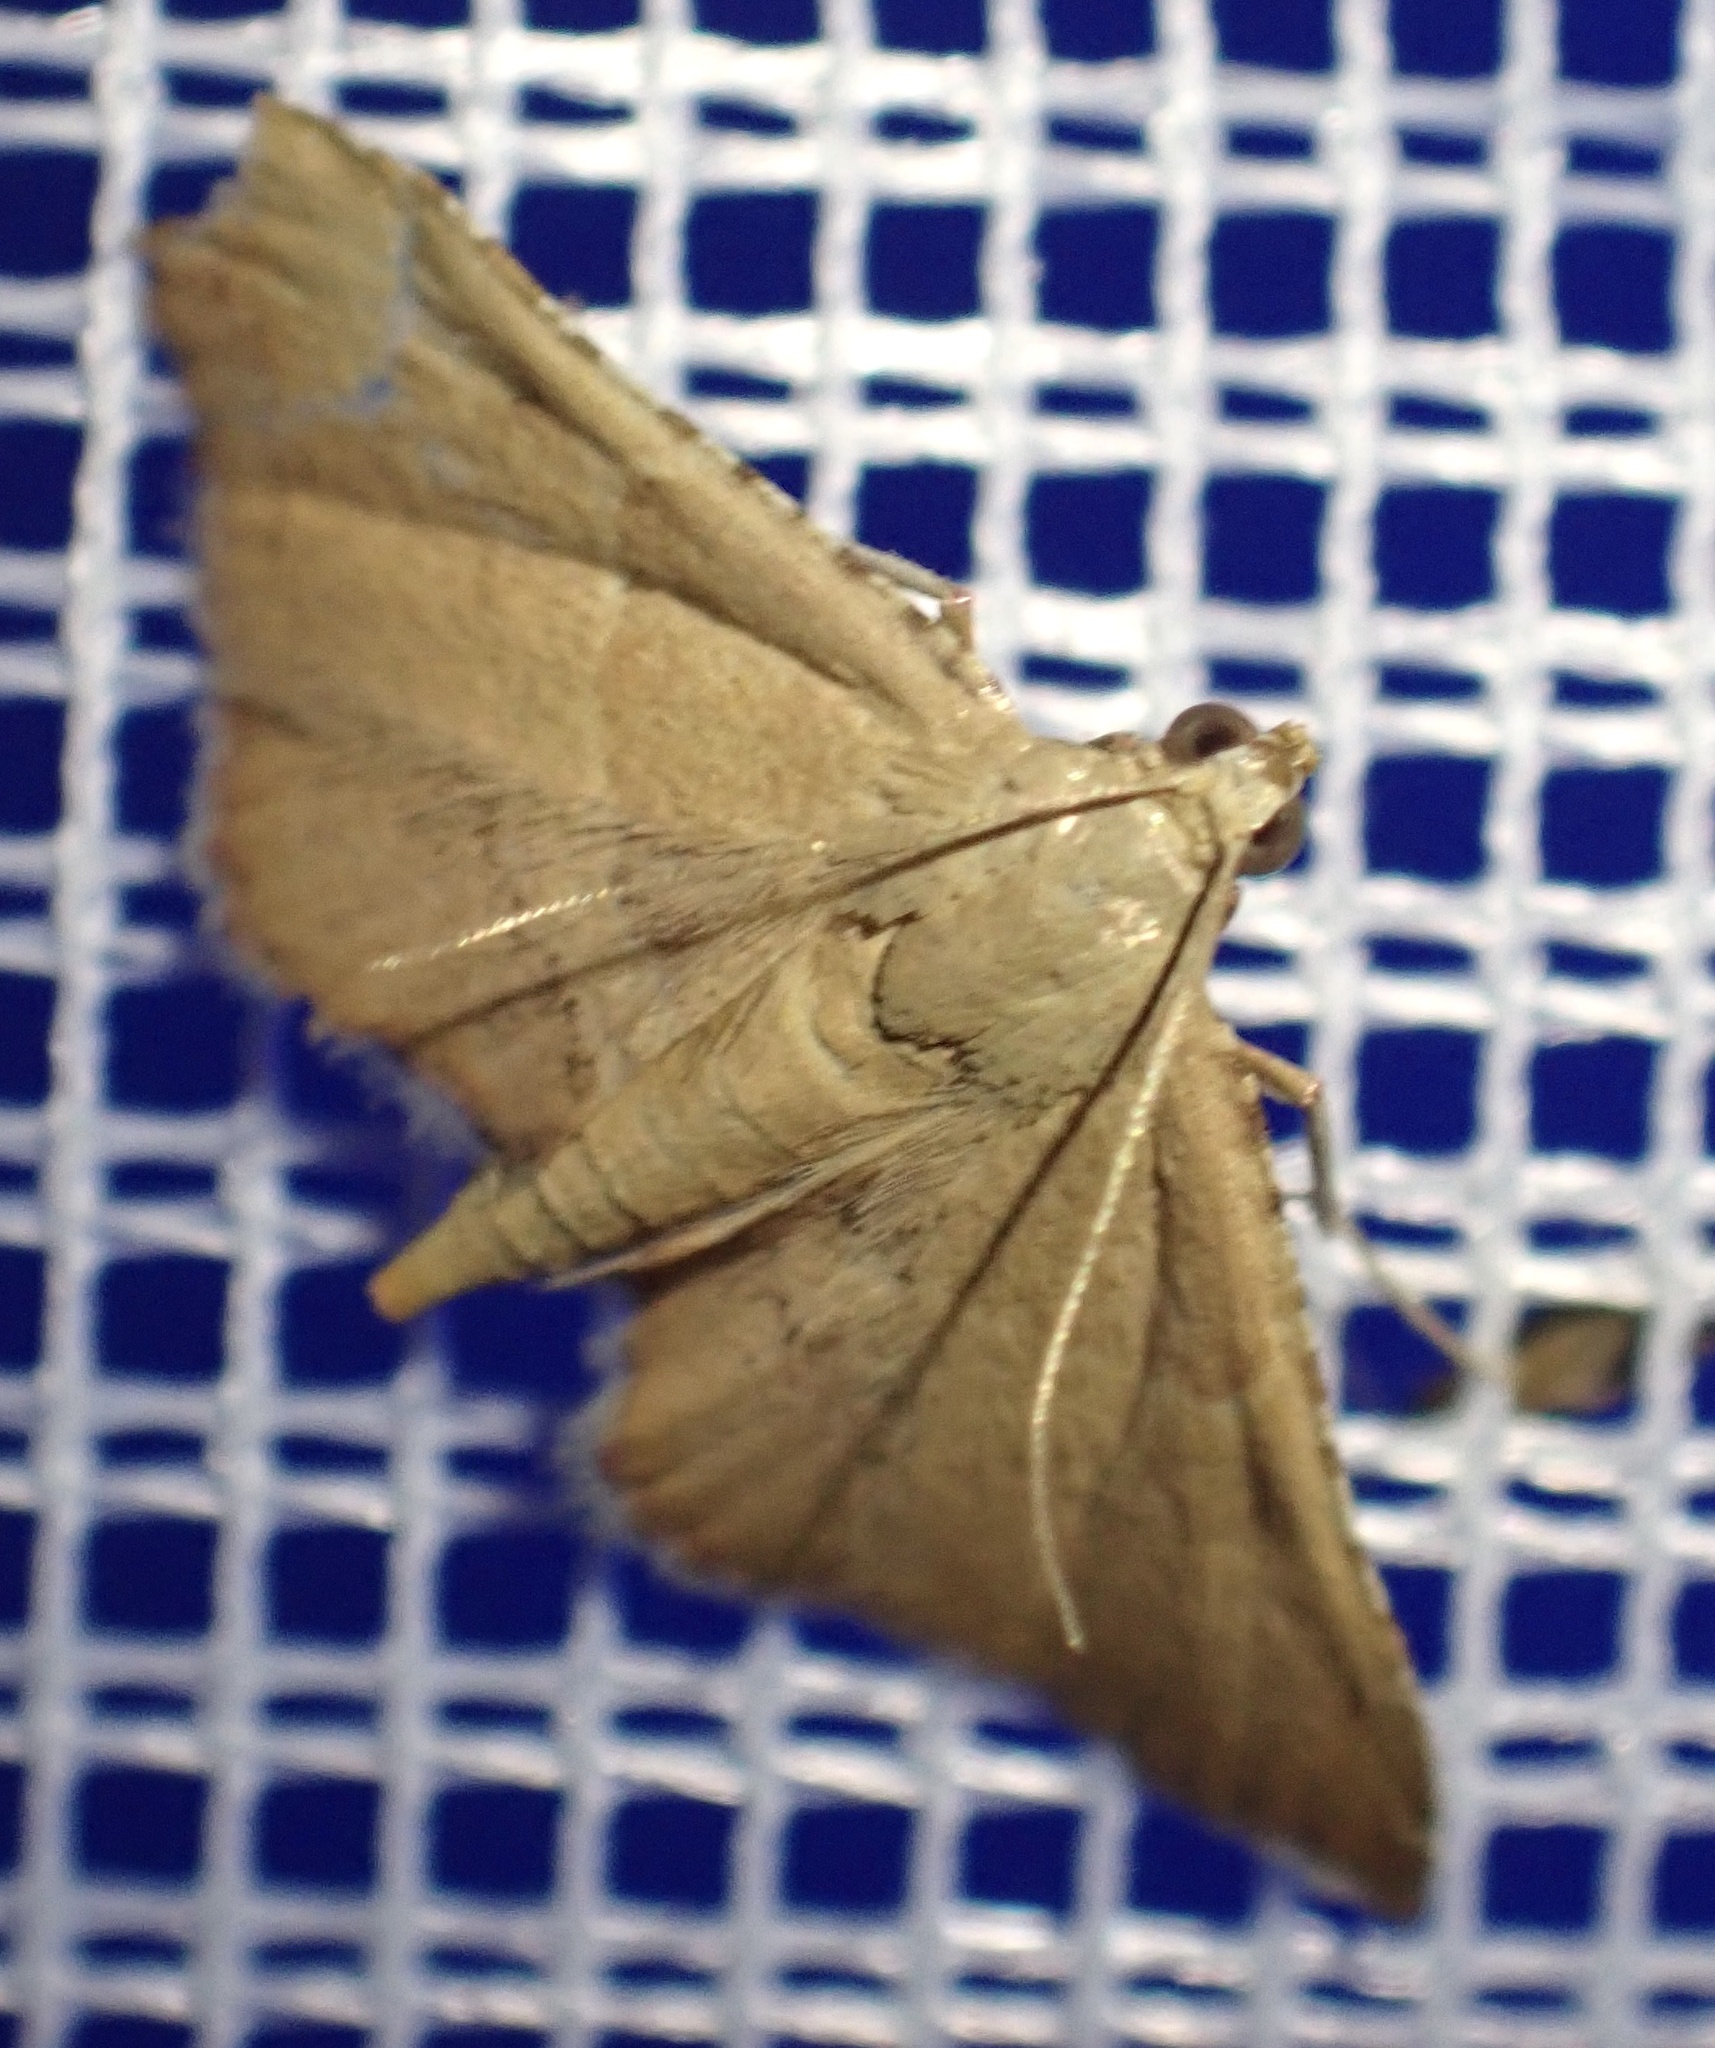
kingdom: Animalia
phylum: Arthropoda
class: Insecta
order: Lepidoptera
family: Pyralidae
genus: Endotricha
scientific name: Endotricha flammealis
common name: Rosy tabby
